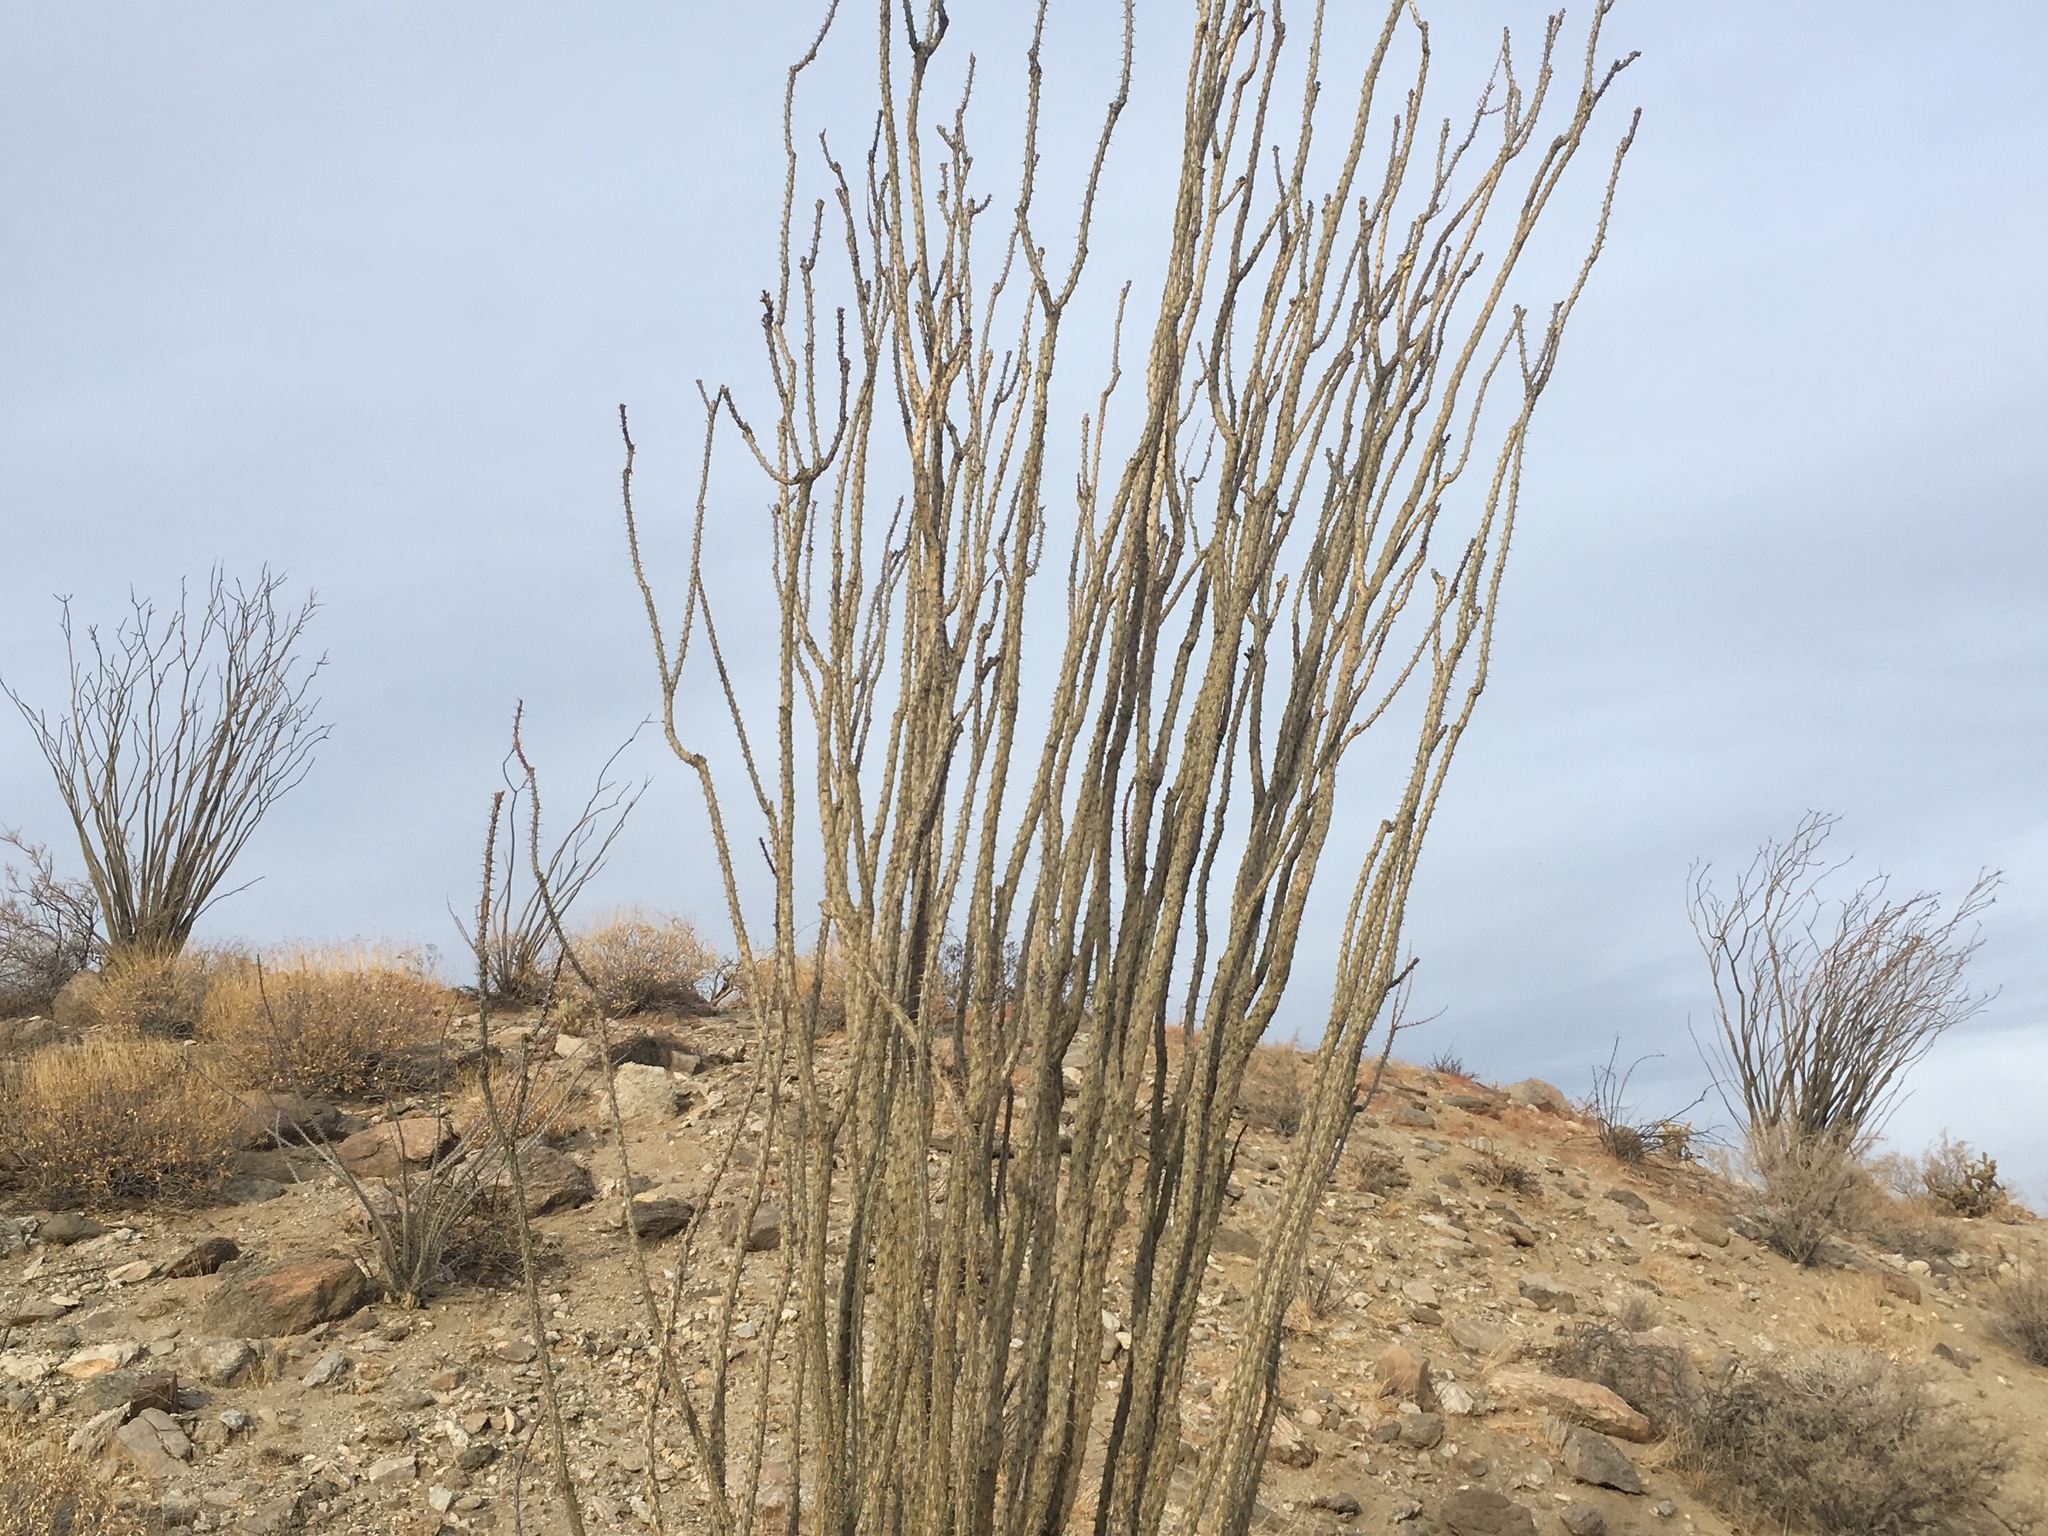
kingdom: Plantae
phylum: Tracheophyta
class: Magnoliopsida
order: Ericales
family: Fouquieriaceae
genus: Fouquieria
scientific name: Fouquieria splendens
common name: Vine-cactus
